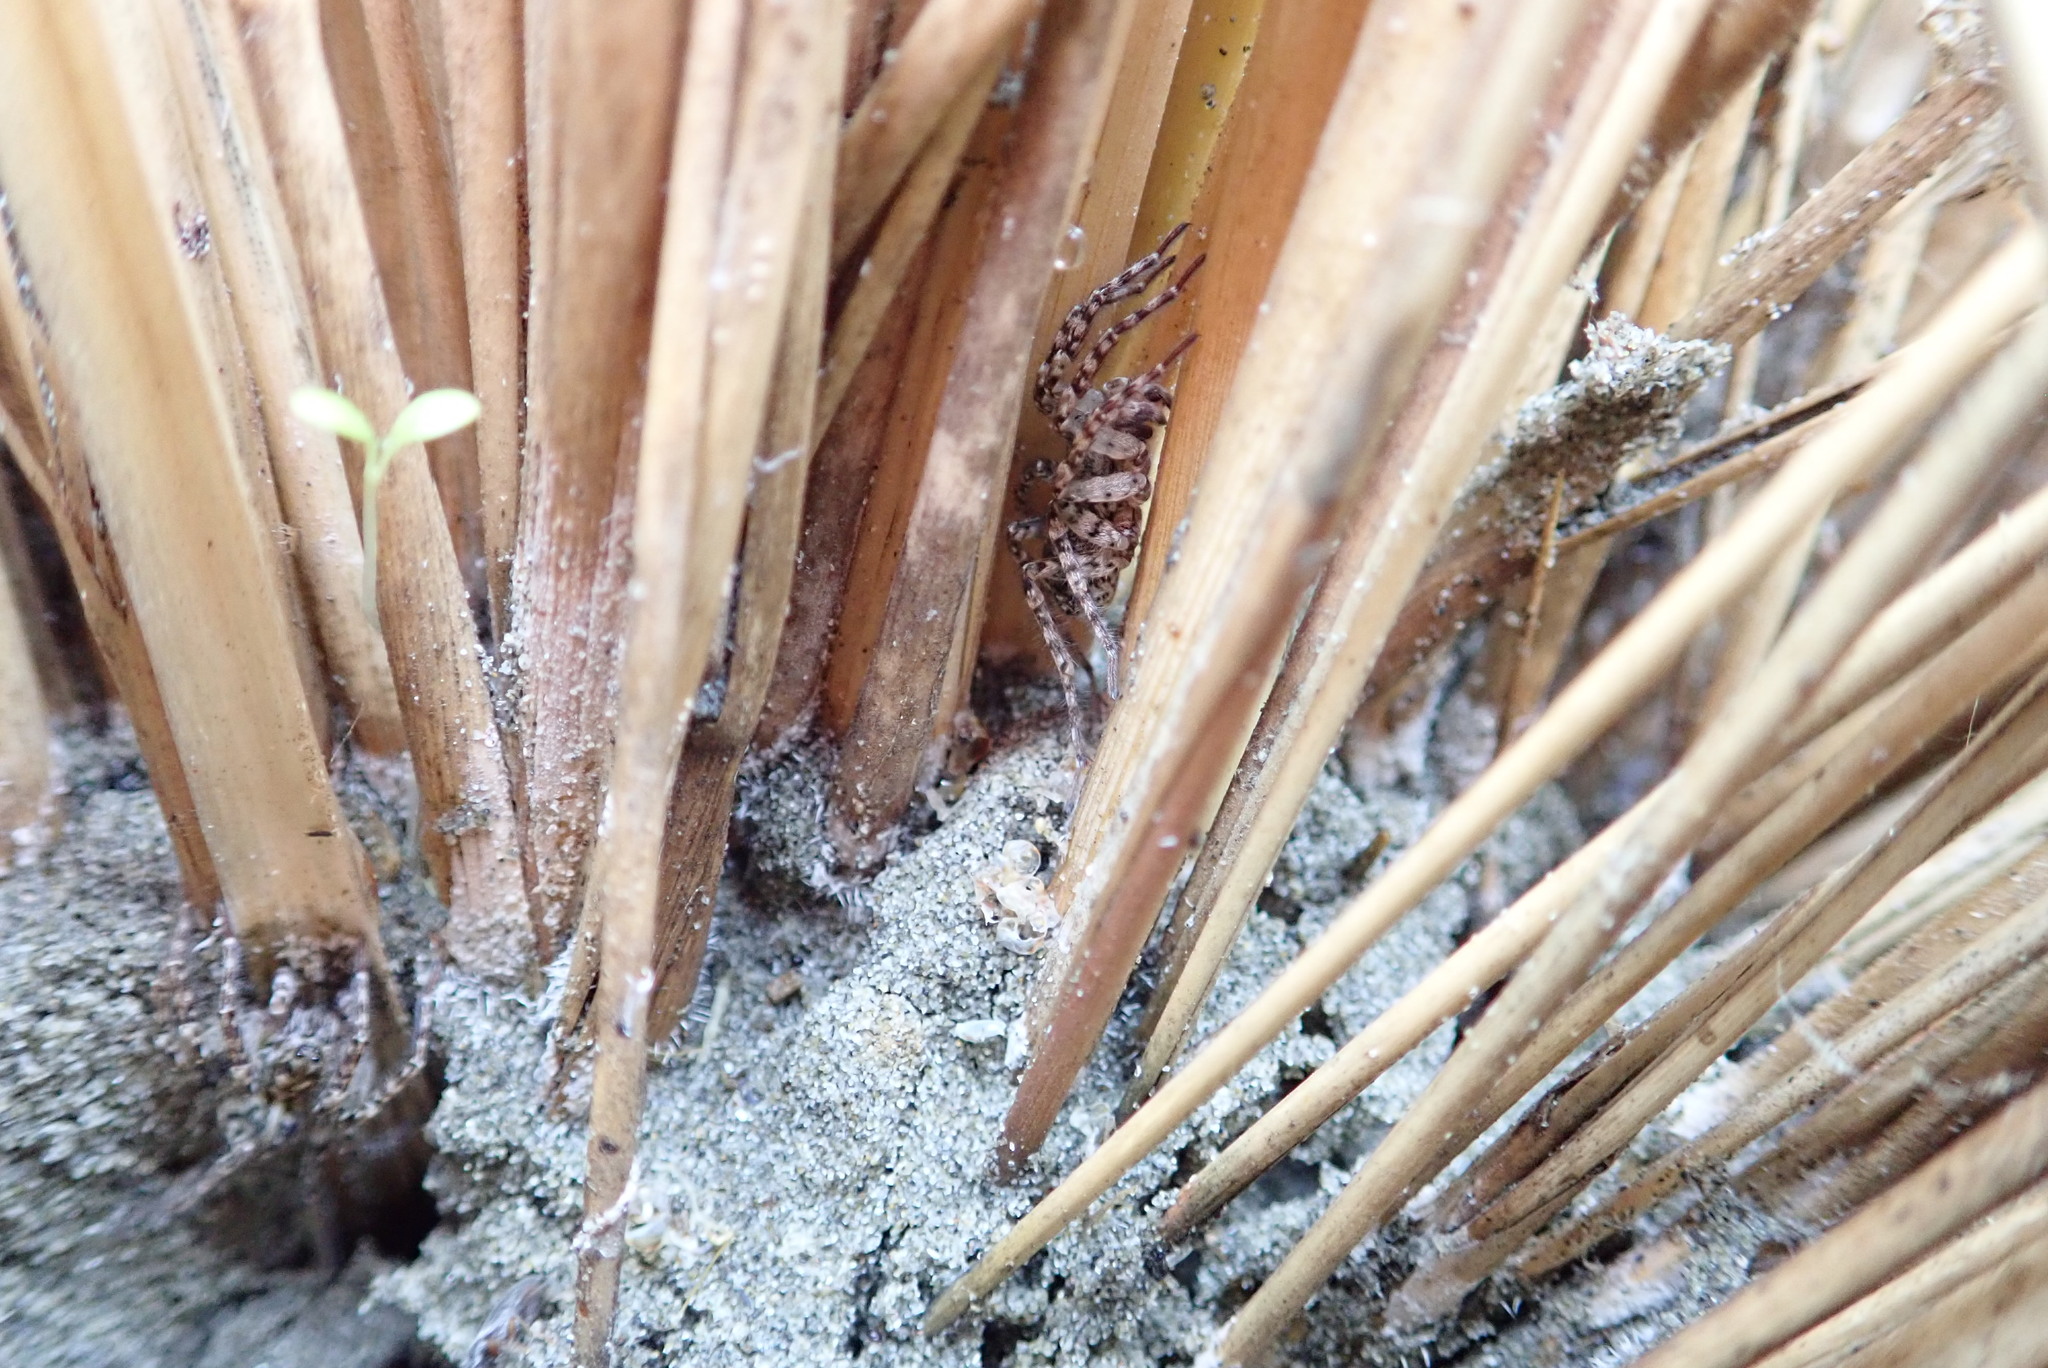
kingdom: Animalia
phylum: Arthropoda
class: Arachnida
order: Araneae
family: Lycosidae
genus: Anoteropsis
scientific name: Anoteropsis litoralis
